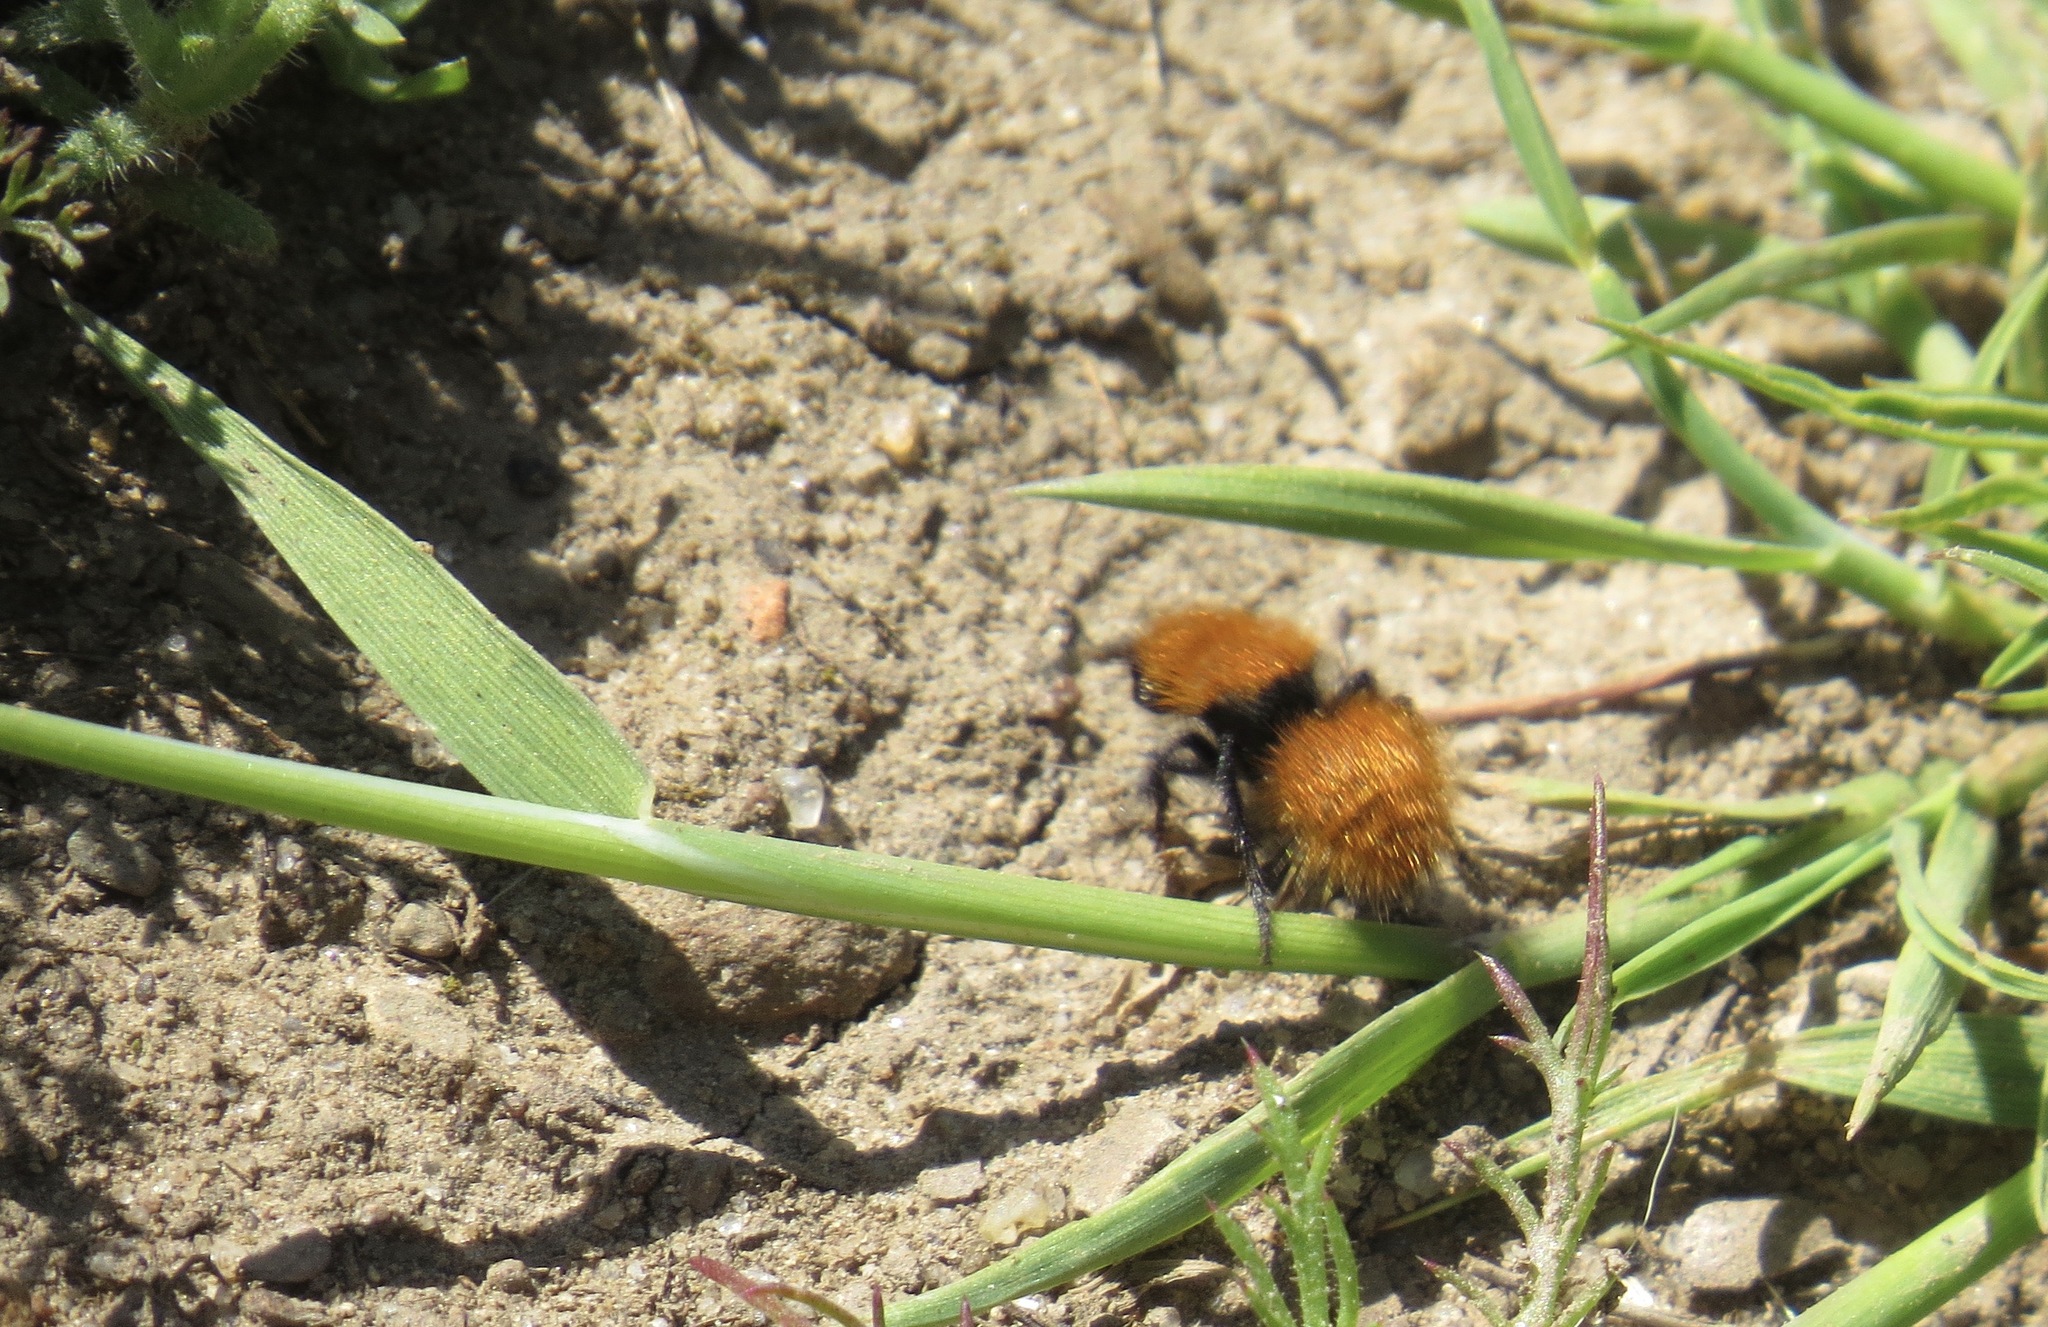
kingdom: Animalia
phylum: Arthropoda
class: Insecta
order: Hymenoptera
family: Mutillidae
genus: Dasymutilla
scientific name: Dasymutilla
